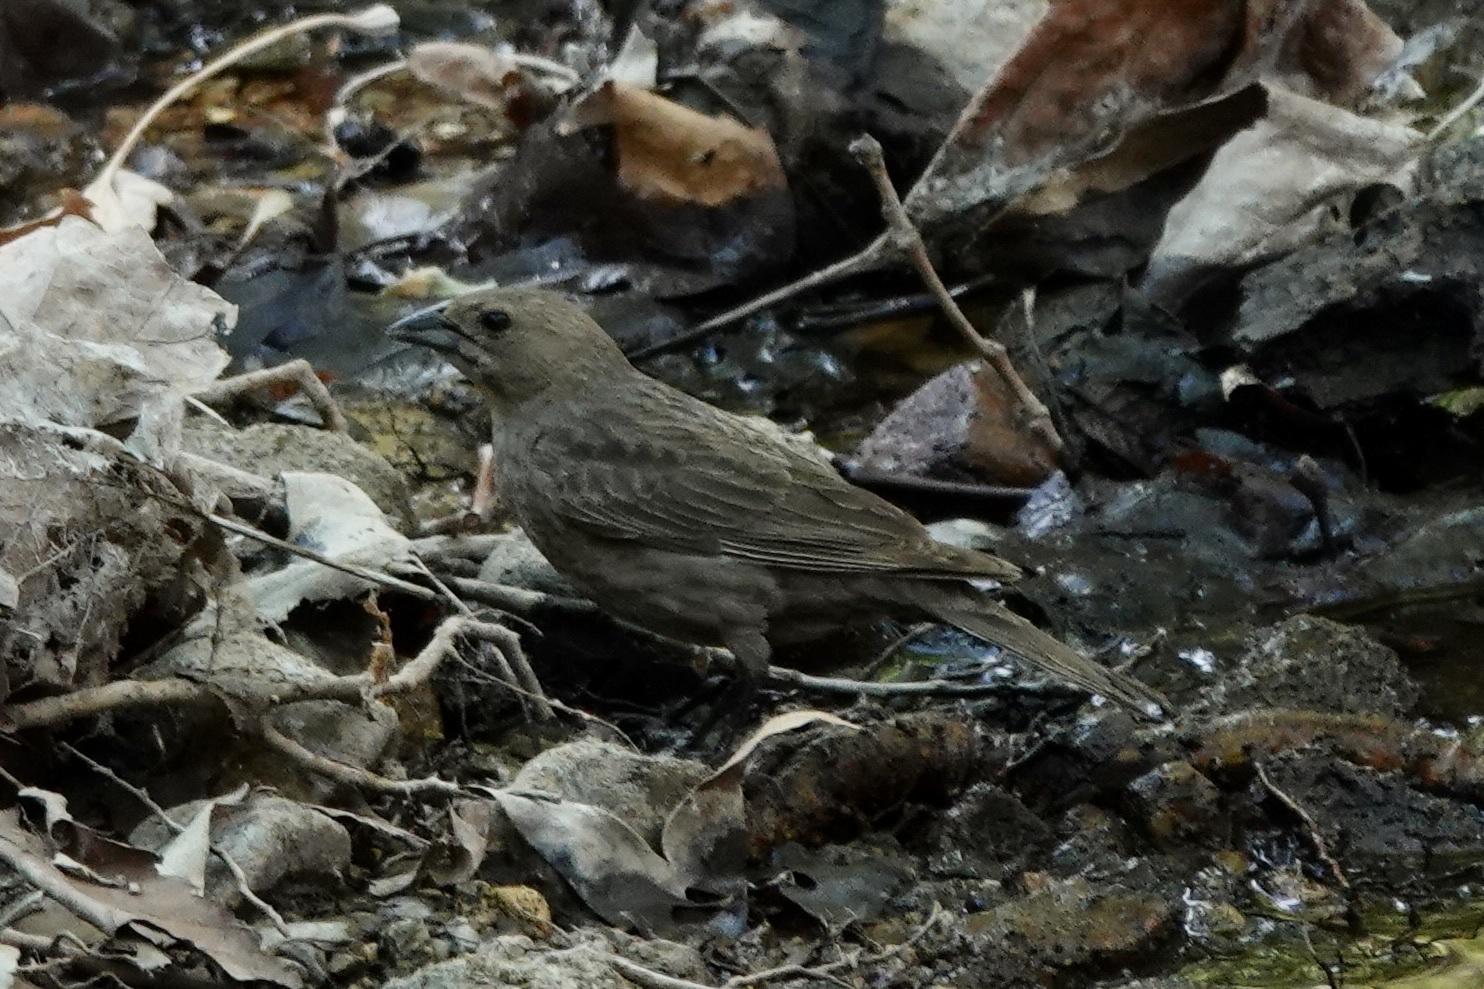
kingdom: Animalia
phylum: Chordata
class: Aves
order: Passeriformes
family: Icteridae
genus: Molothrus
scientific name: Molothrus ater
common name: Brown-headed cowbird
